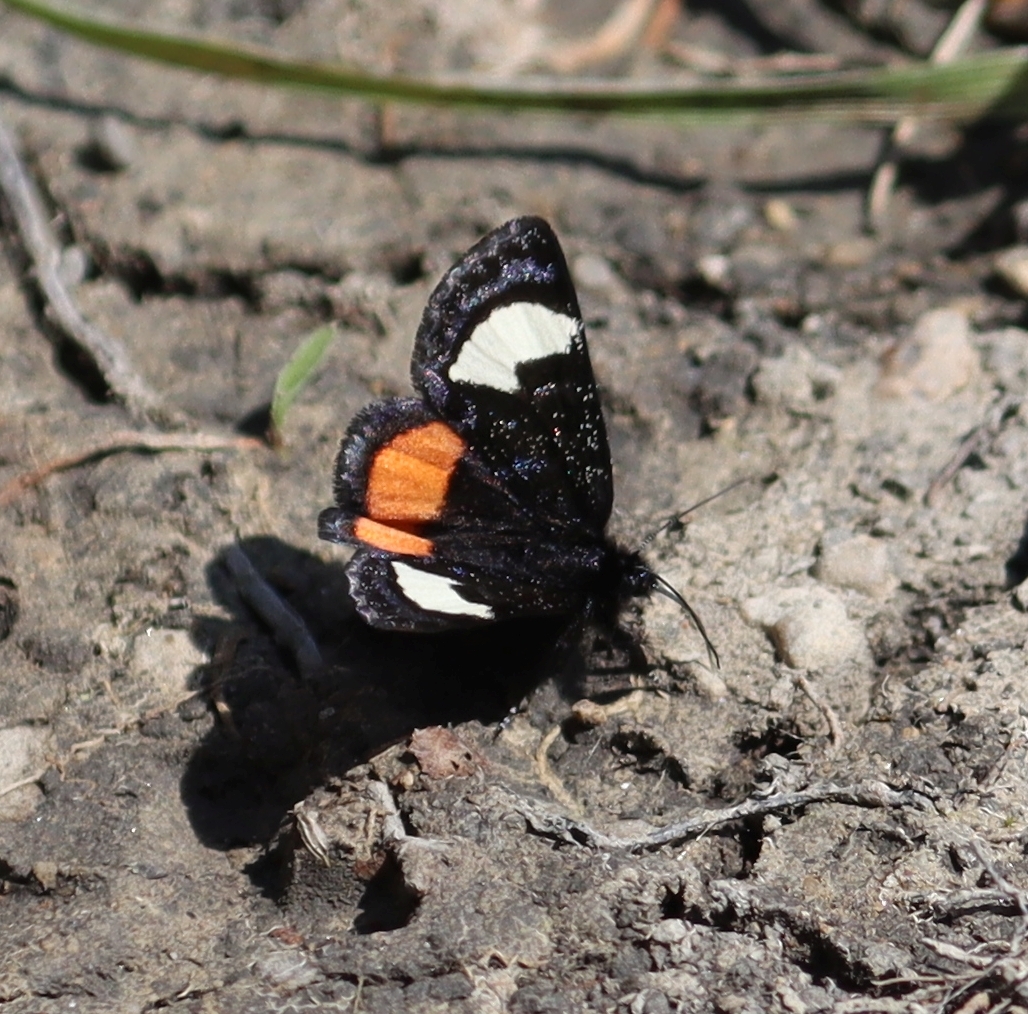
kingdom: Animalia
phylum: Arthropoda
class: Insecta
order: Lepidoptera
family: Noctuidae
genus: Psychomorpha
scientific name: Psychomorpha epimenis
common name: Grapevine epimenis moth
